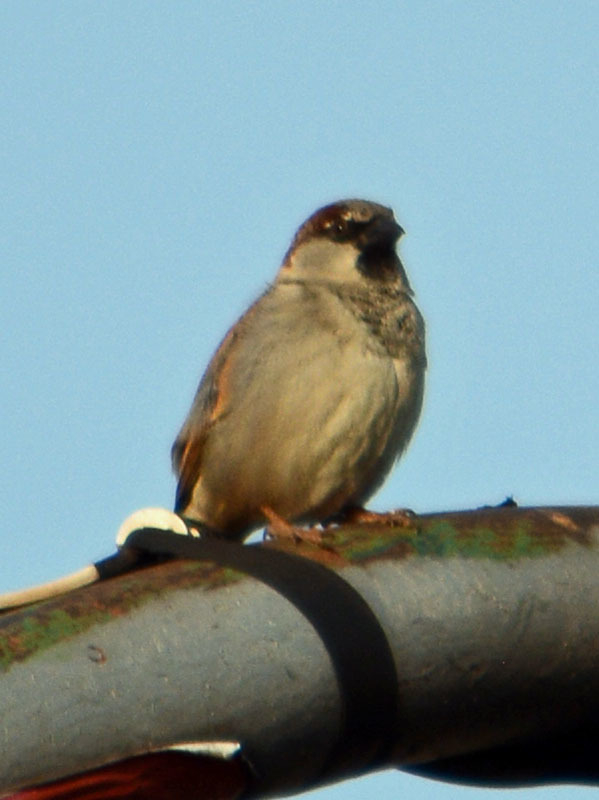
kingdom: Animalia
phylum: Chordata
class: Aves
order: Passeriformes
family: Passeridae
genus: Passer
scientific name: Passer domesticus
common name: House sparrow
